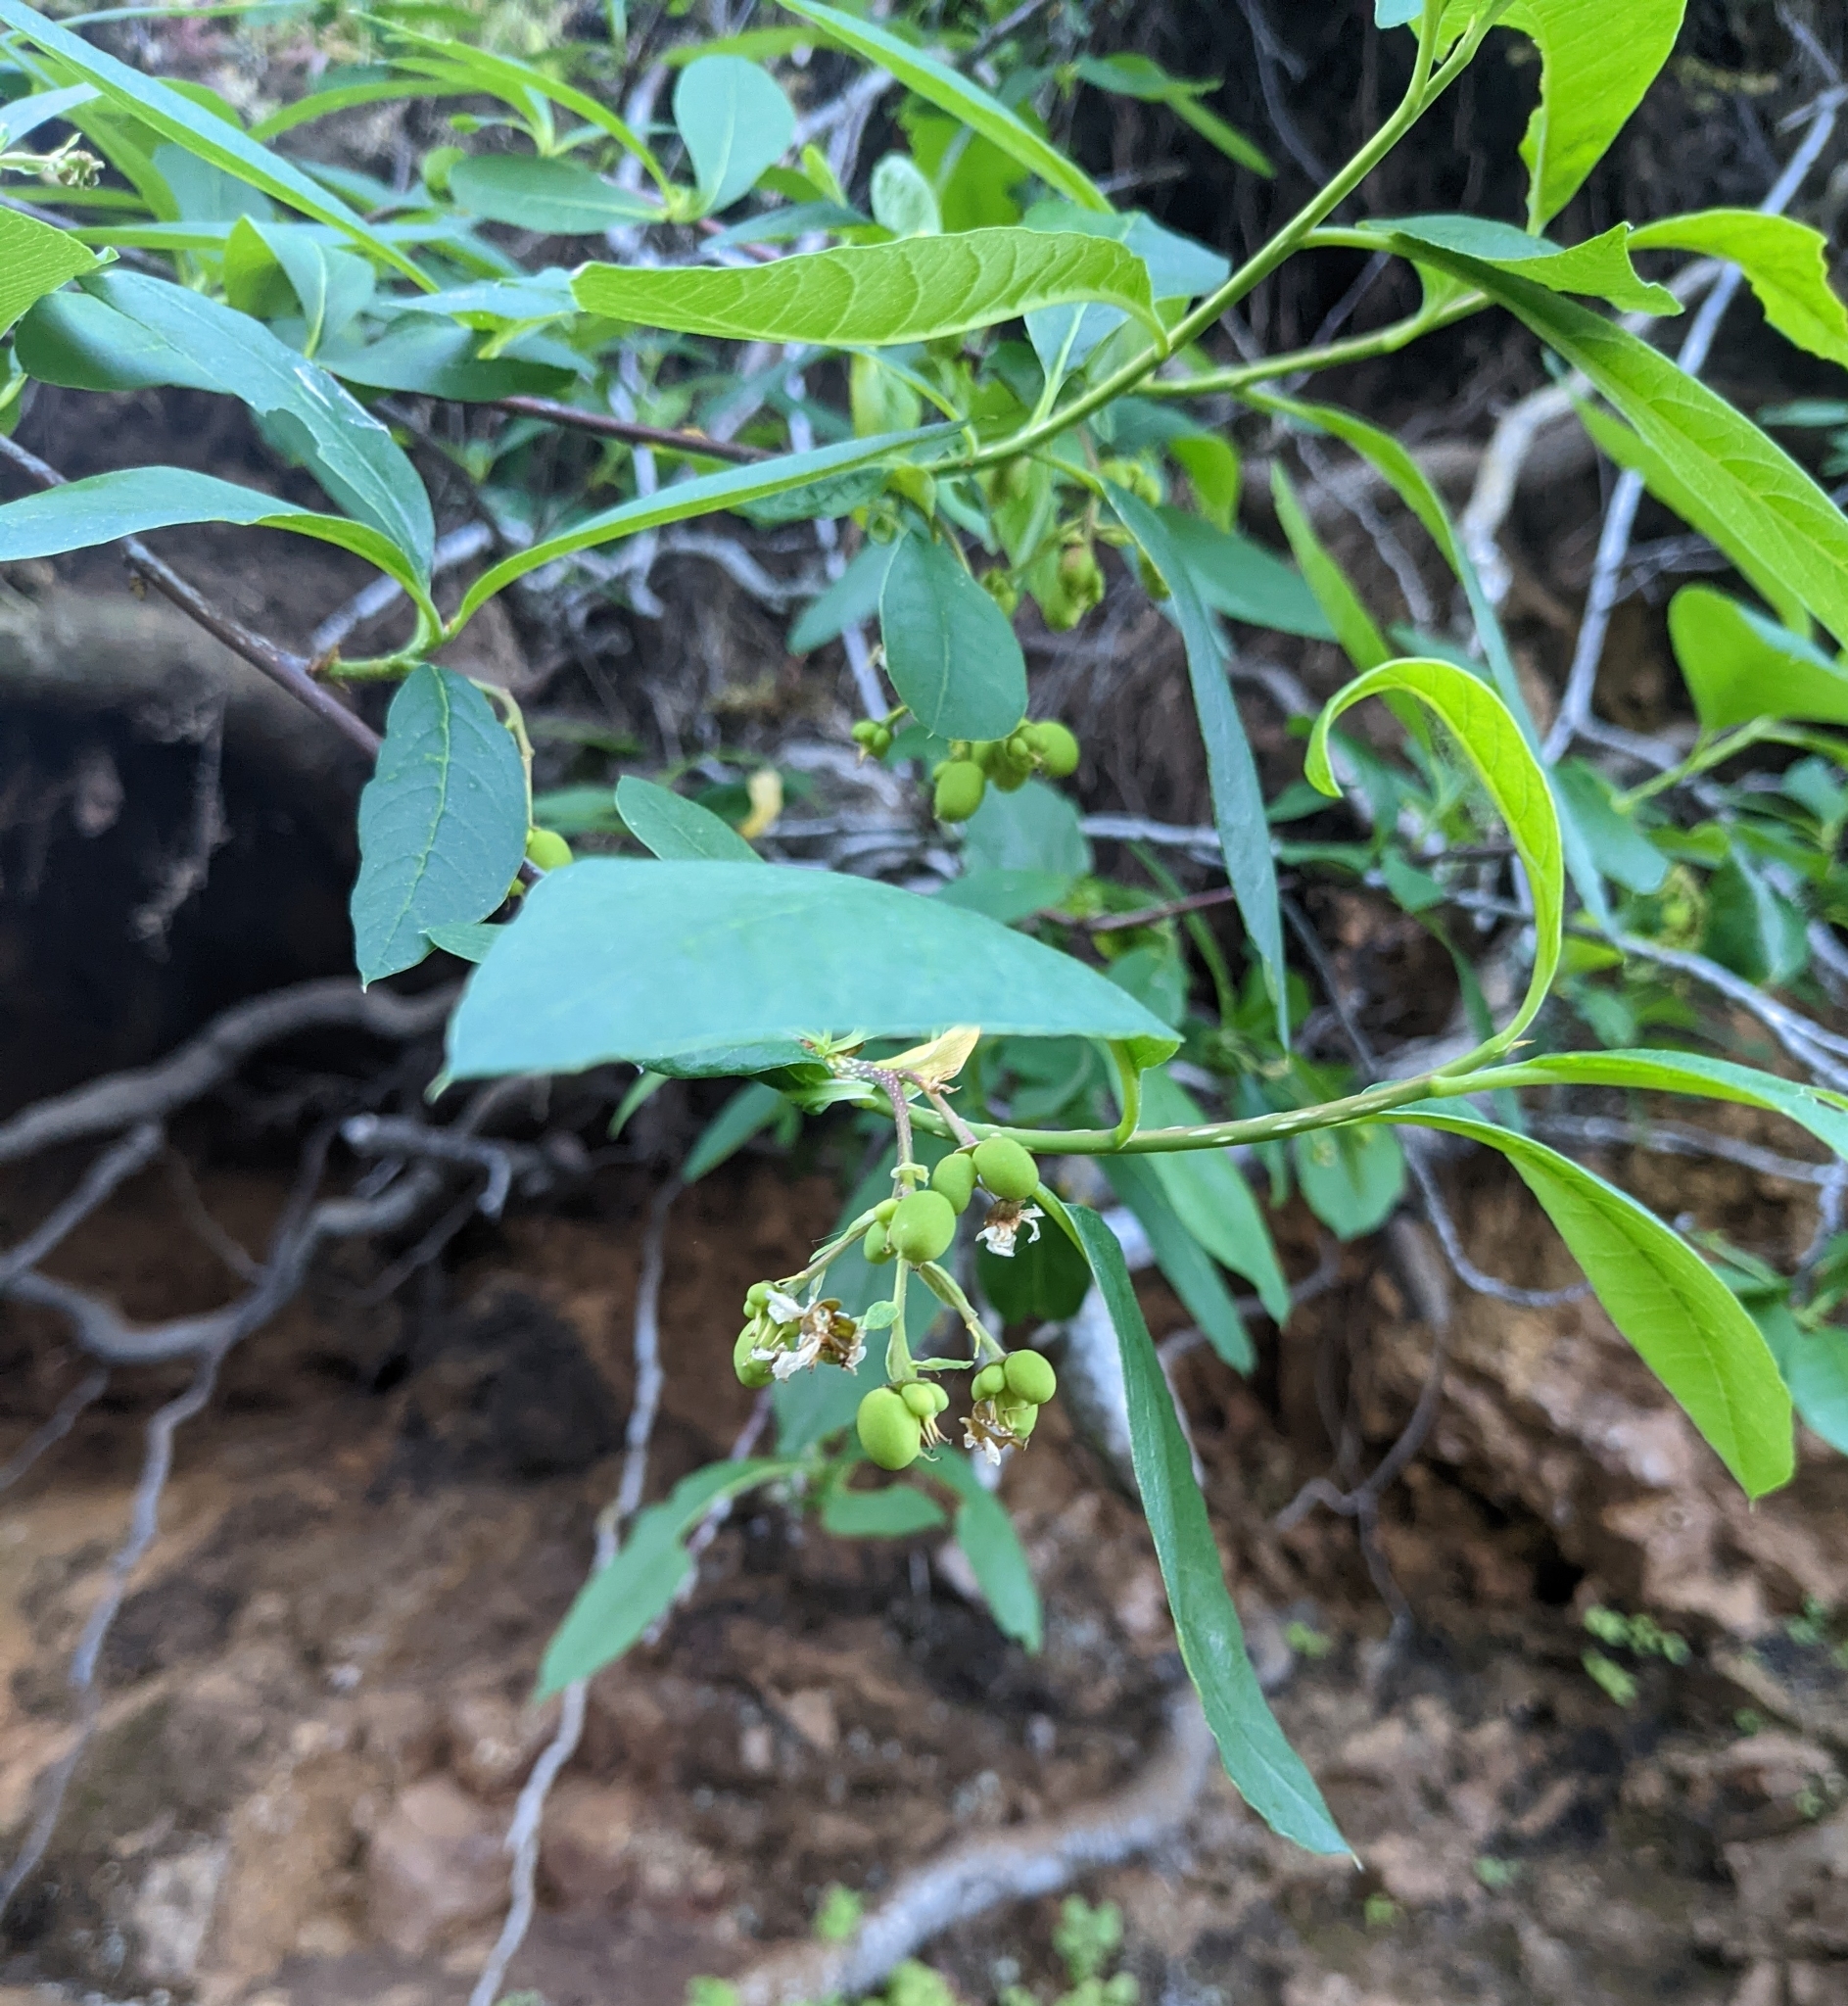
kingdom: Plantae
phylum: Tracheophyta
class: Magnoliopsida
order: Rosales
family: Rosaceae
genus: Oemleria
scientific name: Oemleria cerasiformis
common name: Osoberry
